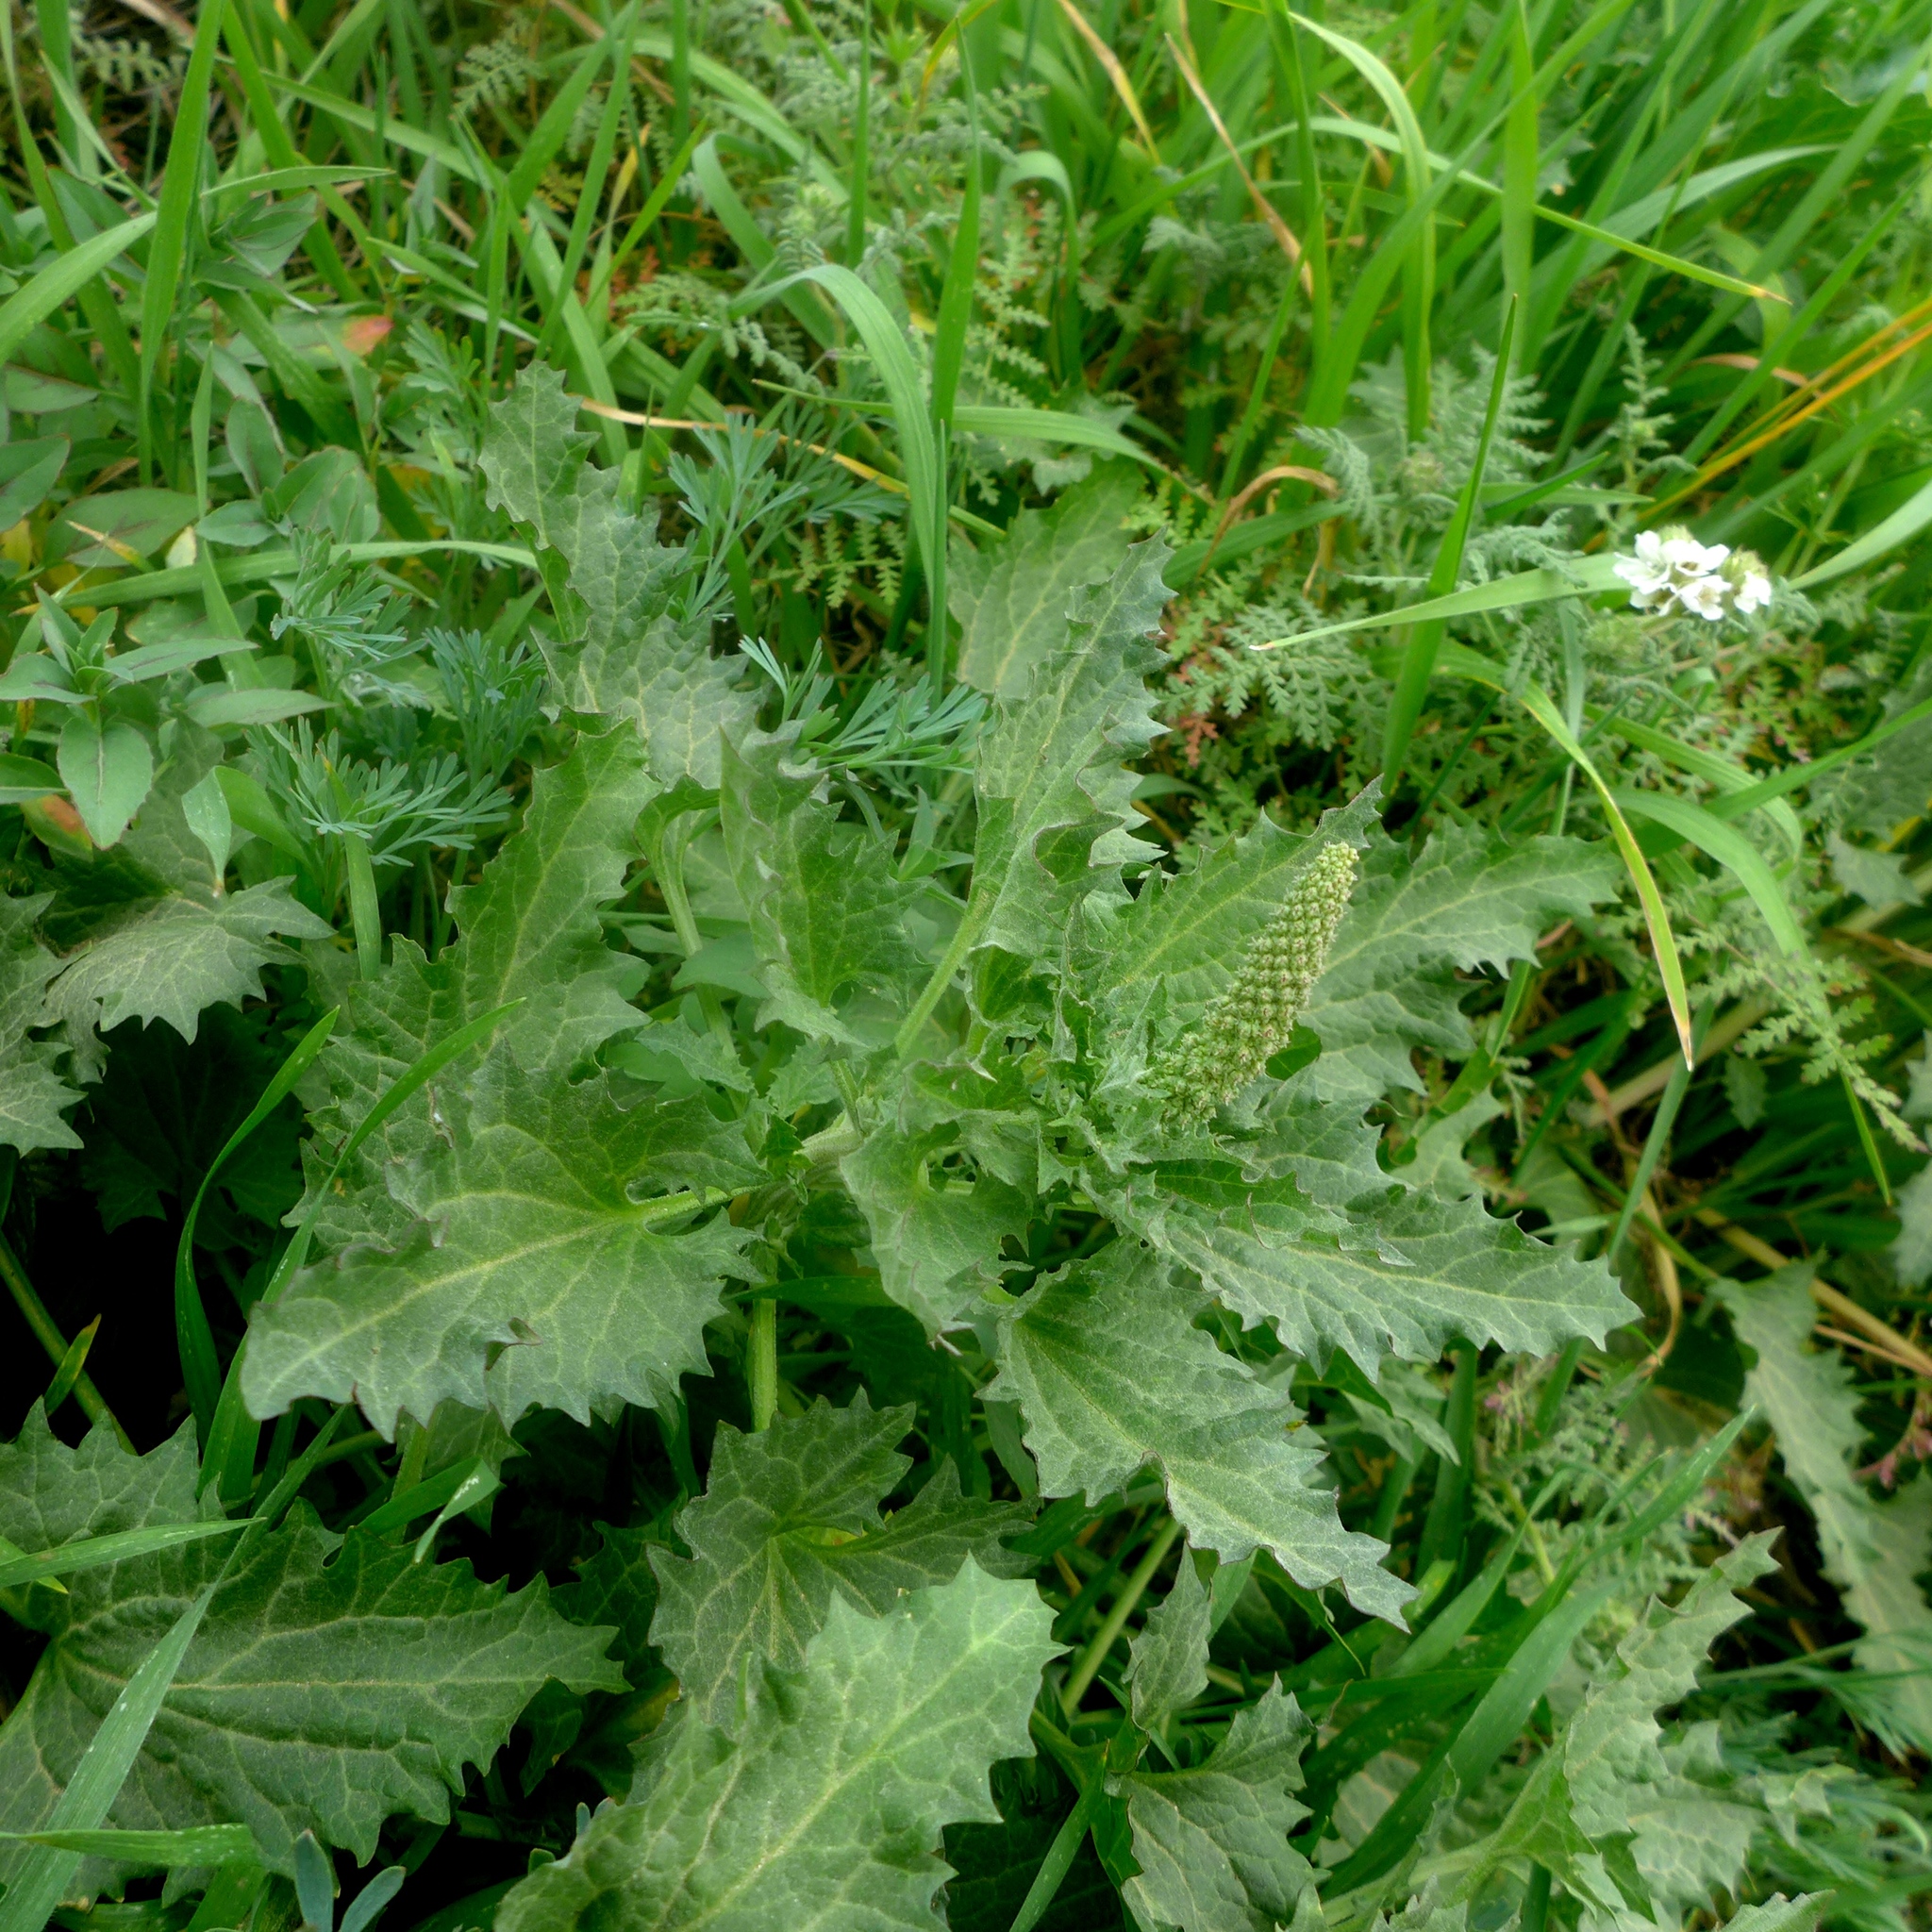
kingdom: Plantae
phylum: Tracheophyta
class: Magnoliopsida
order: Caryophyllales
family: Amaranthaceae
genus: Blitum
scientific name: Blitum californicum
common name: California goosefoot
